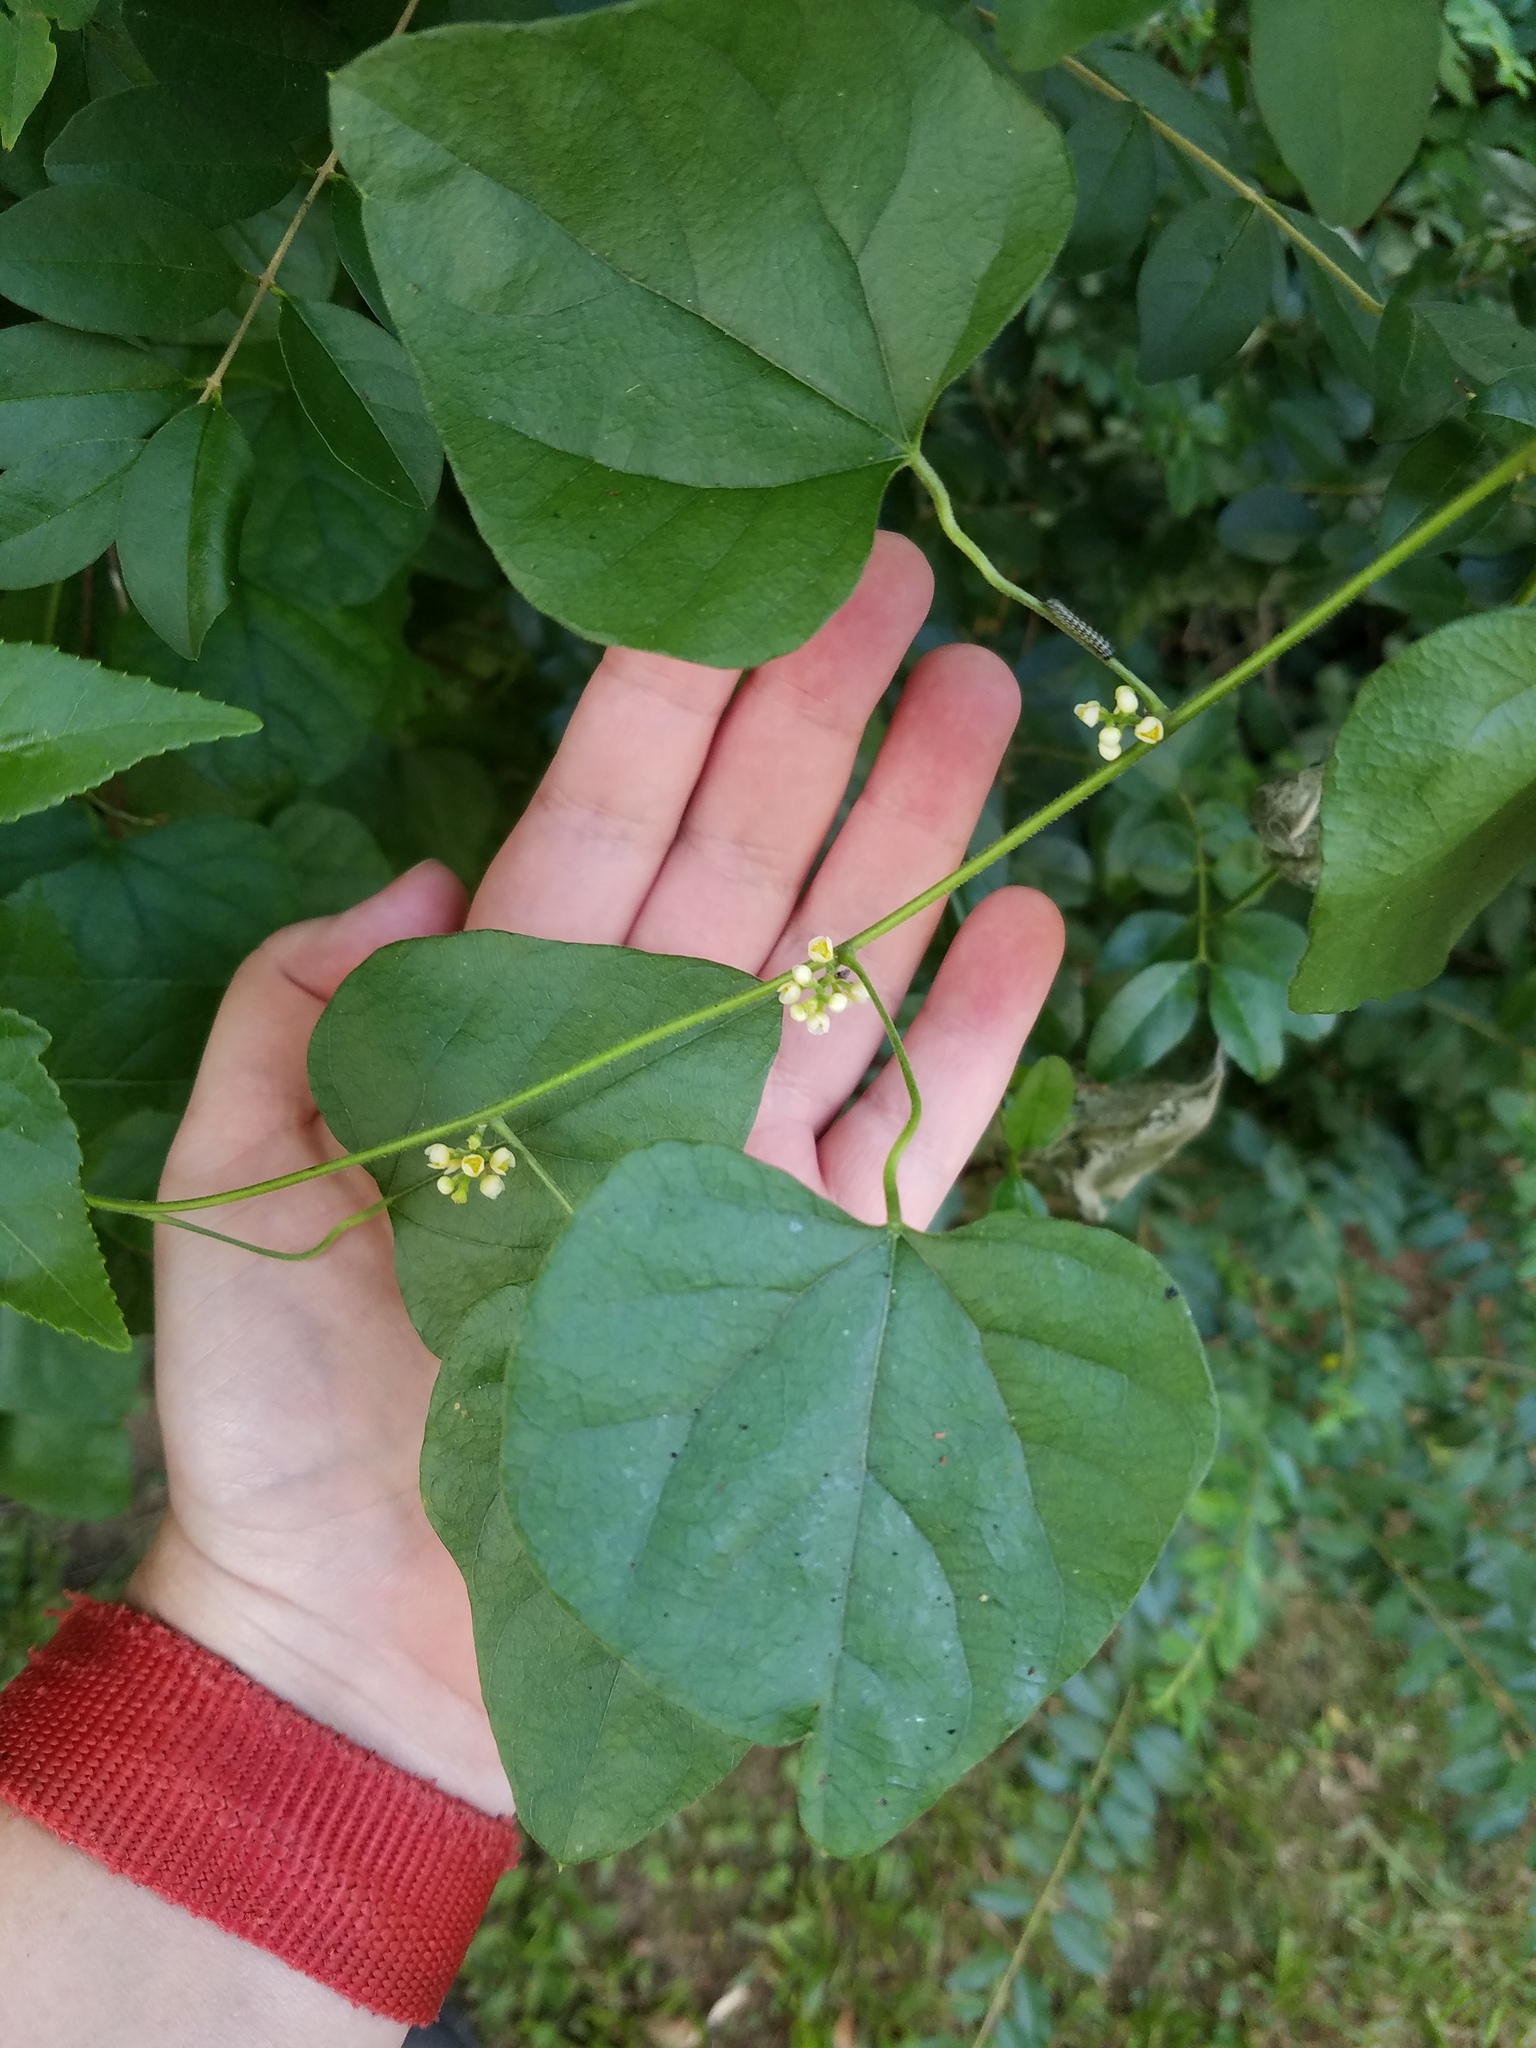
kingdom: Plantae
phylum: Tracheophyta
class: Magnoliopsida
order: Ranunculales
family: Menispermaceae
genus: Cocculus
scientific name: Cocculus carolinus
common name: Carolina moonseed
